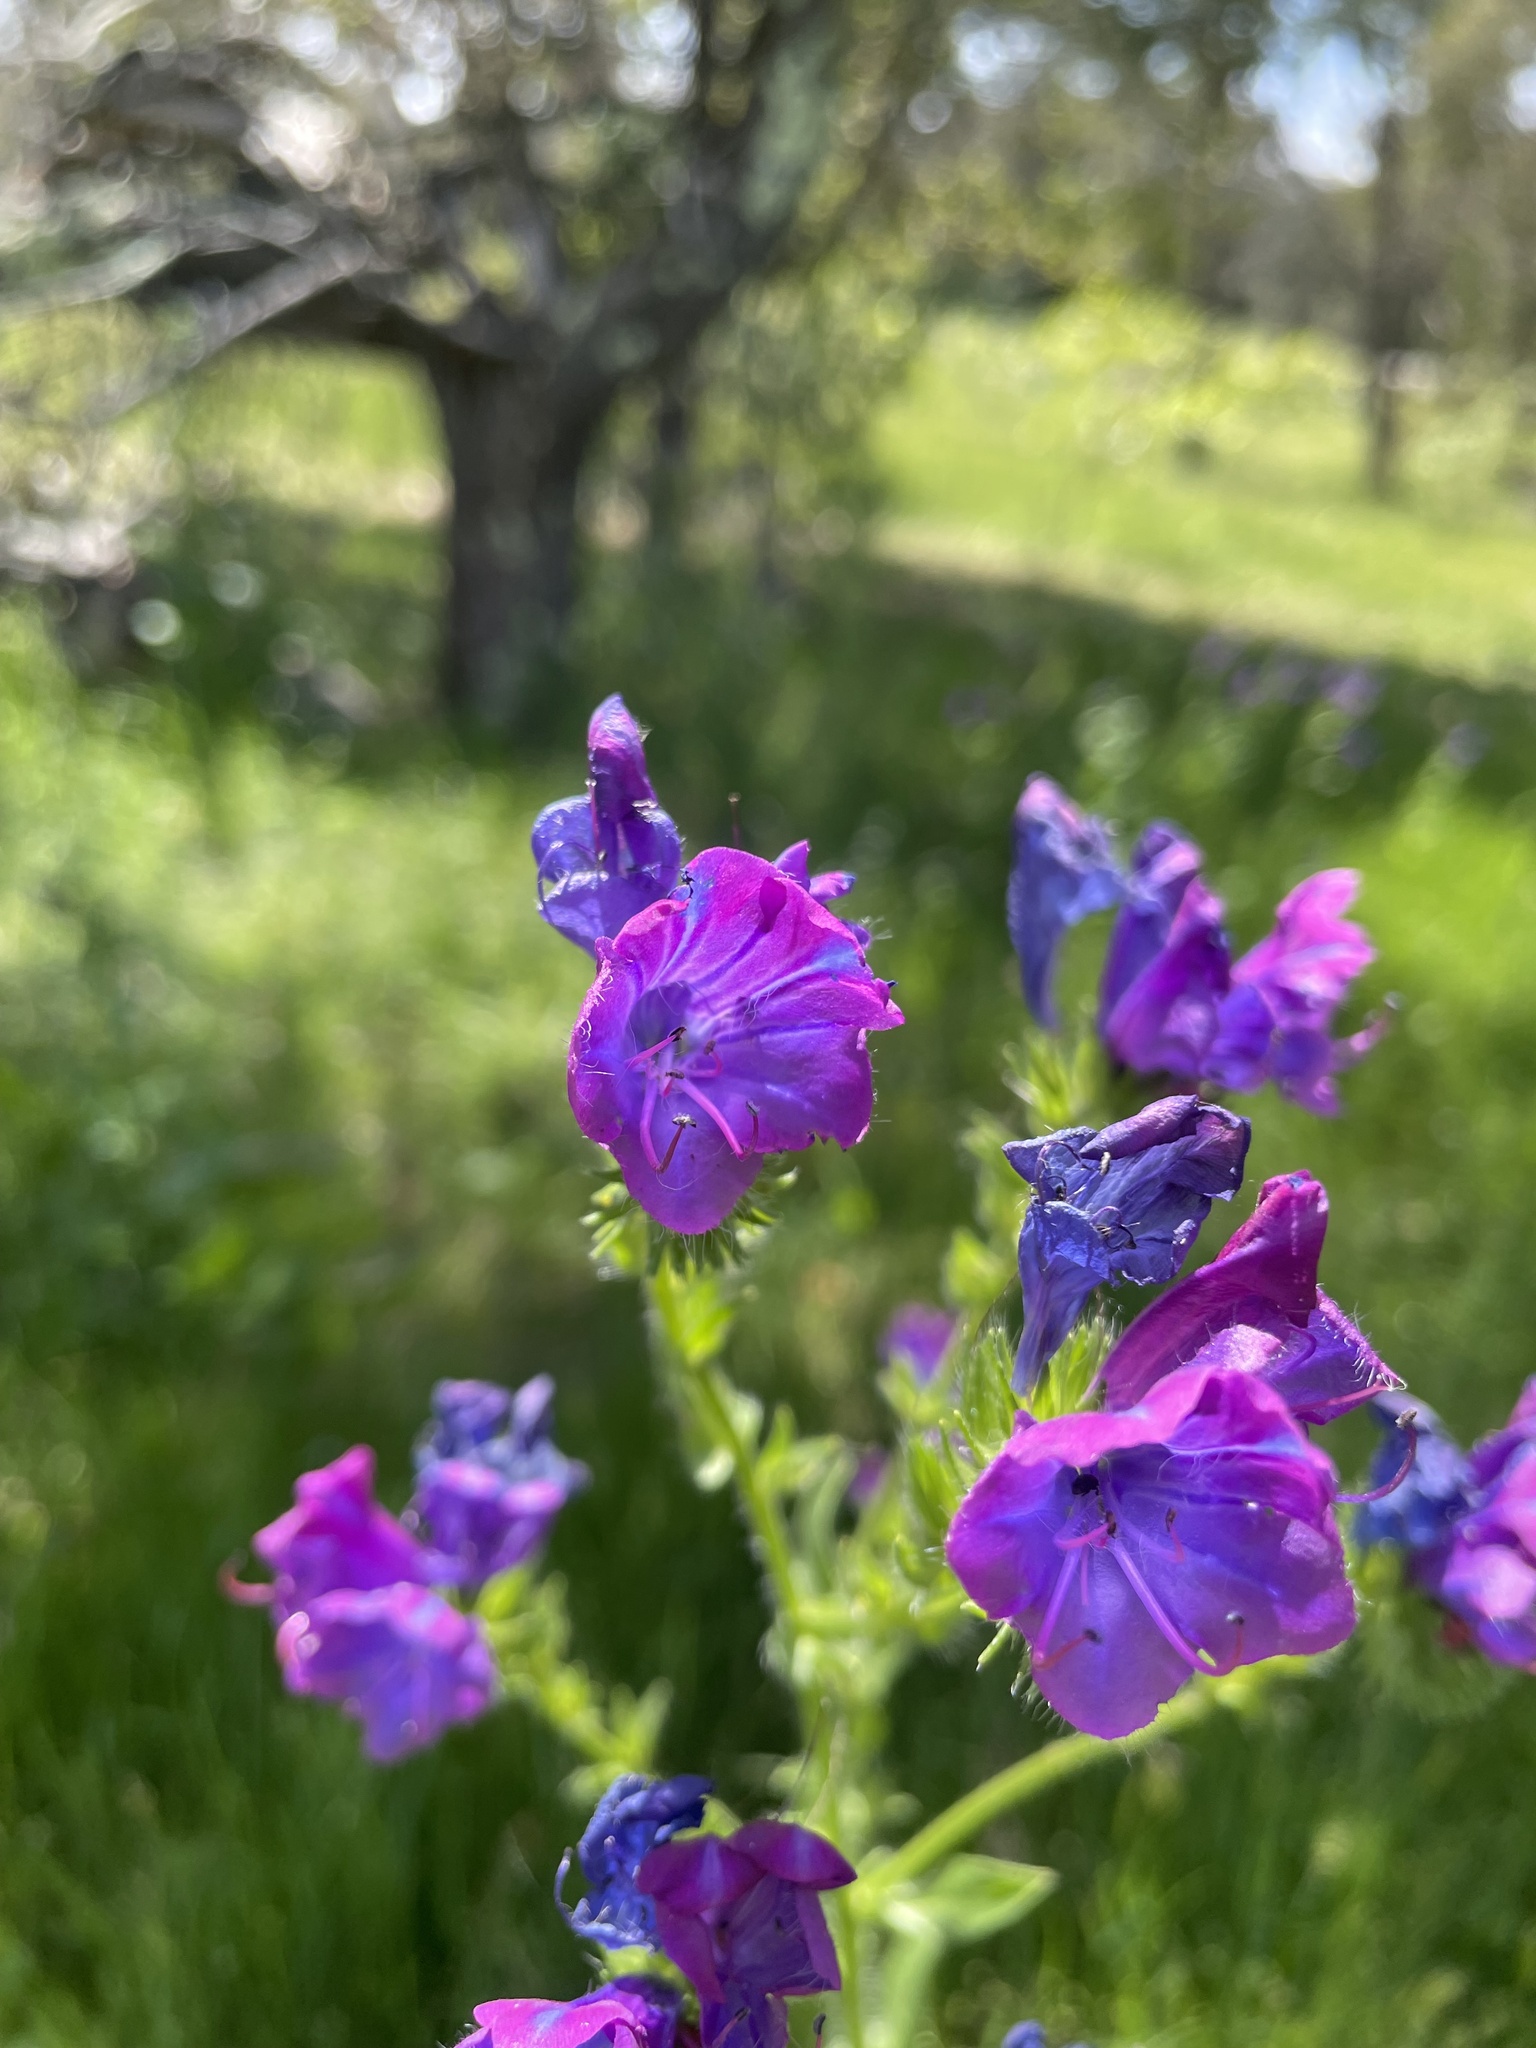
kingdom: Plantae
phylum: Tracheophyta
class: Magnoliopsida
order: Boraginales
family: Boraginaceae
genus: Echium
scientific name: Echium plantagineum
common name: Purple viper's-bugloss
